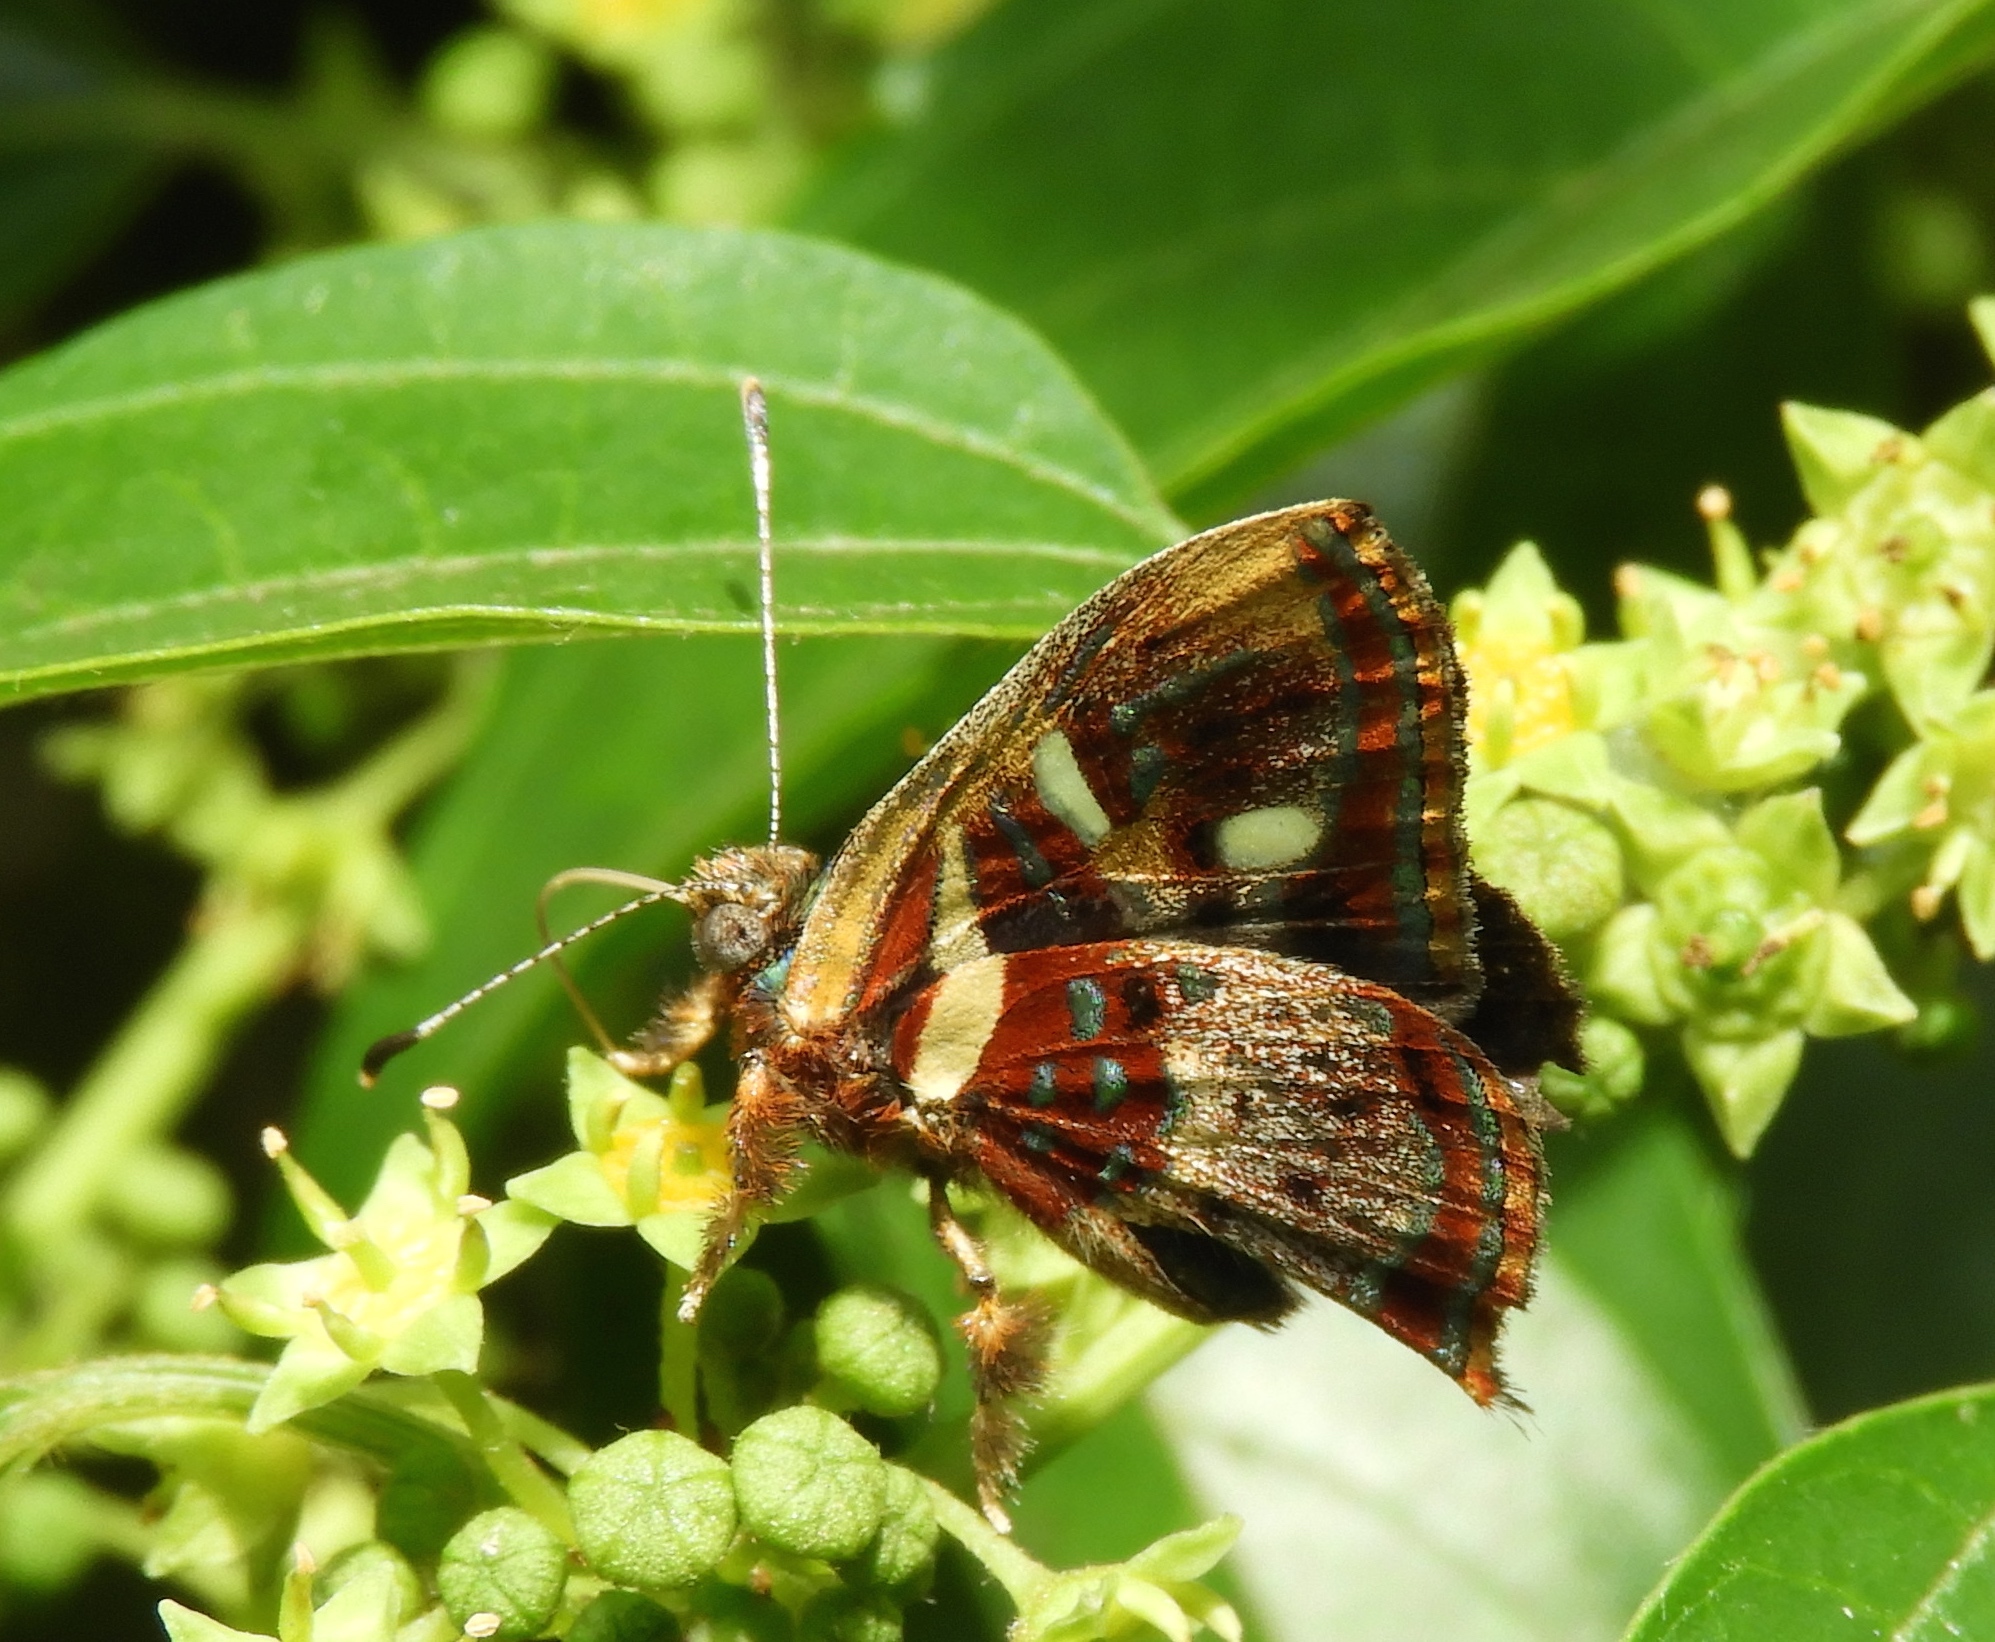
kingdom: Animalia
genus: Anteros
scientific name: Anteros carausius
